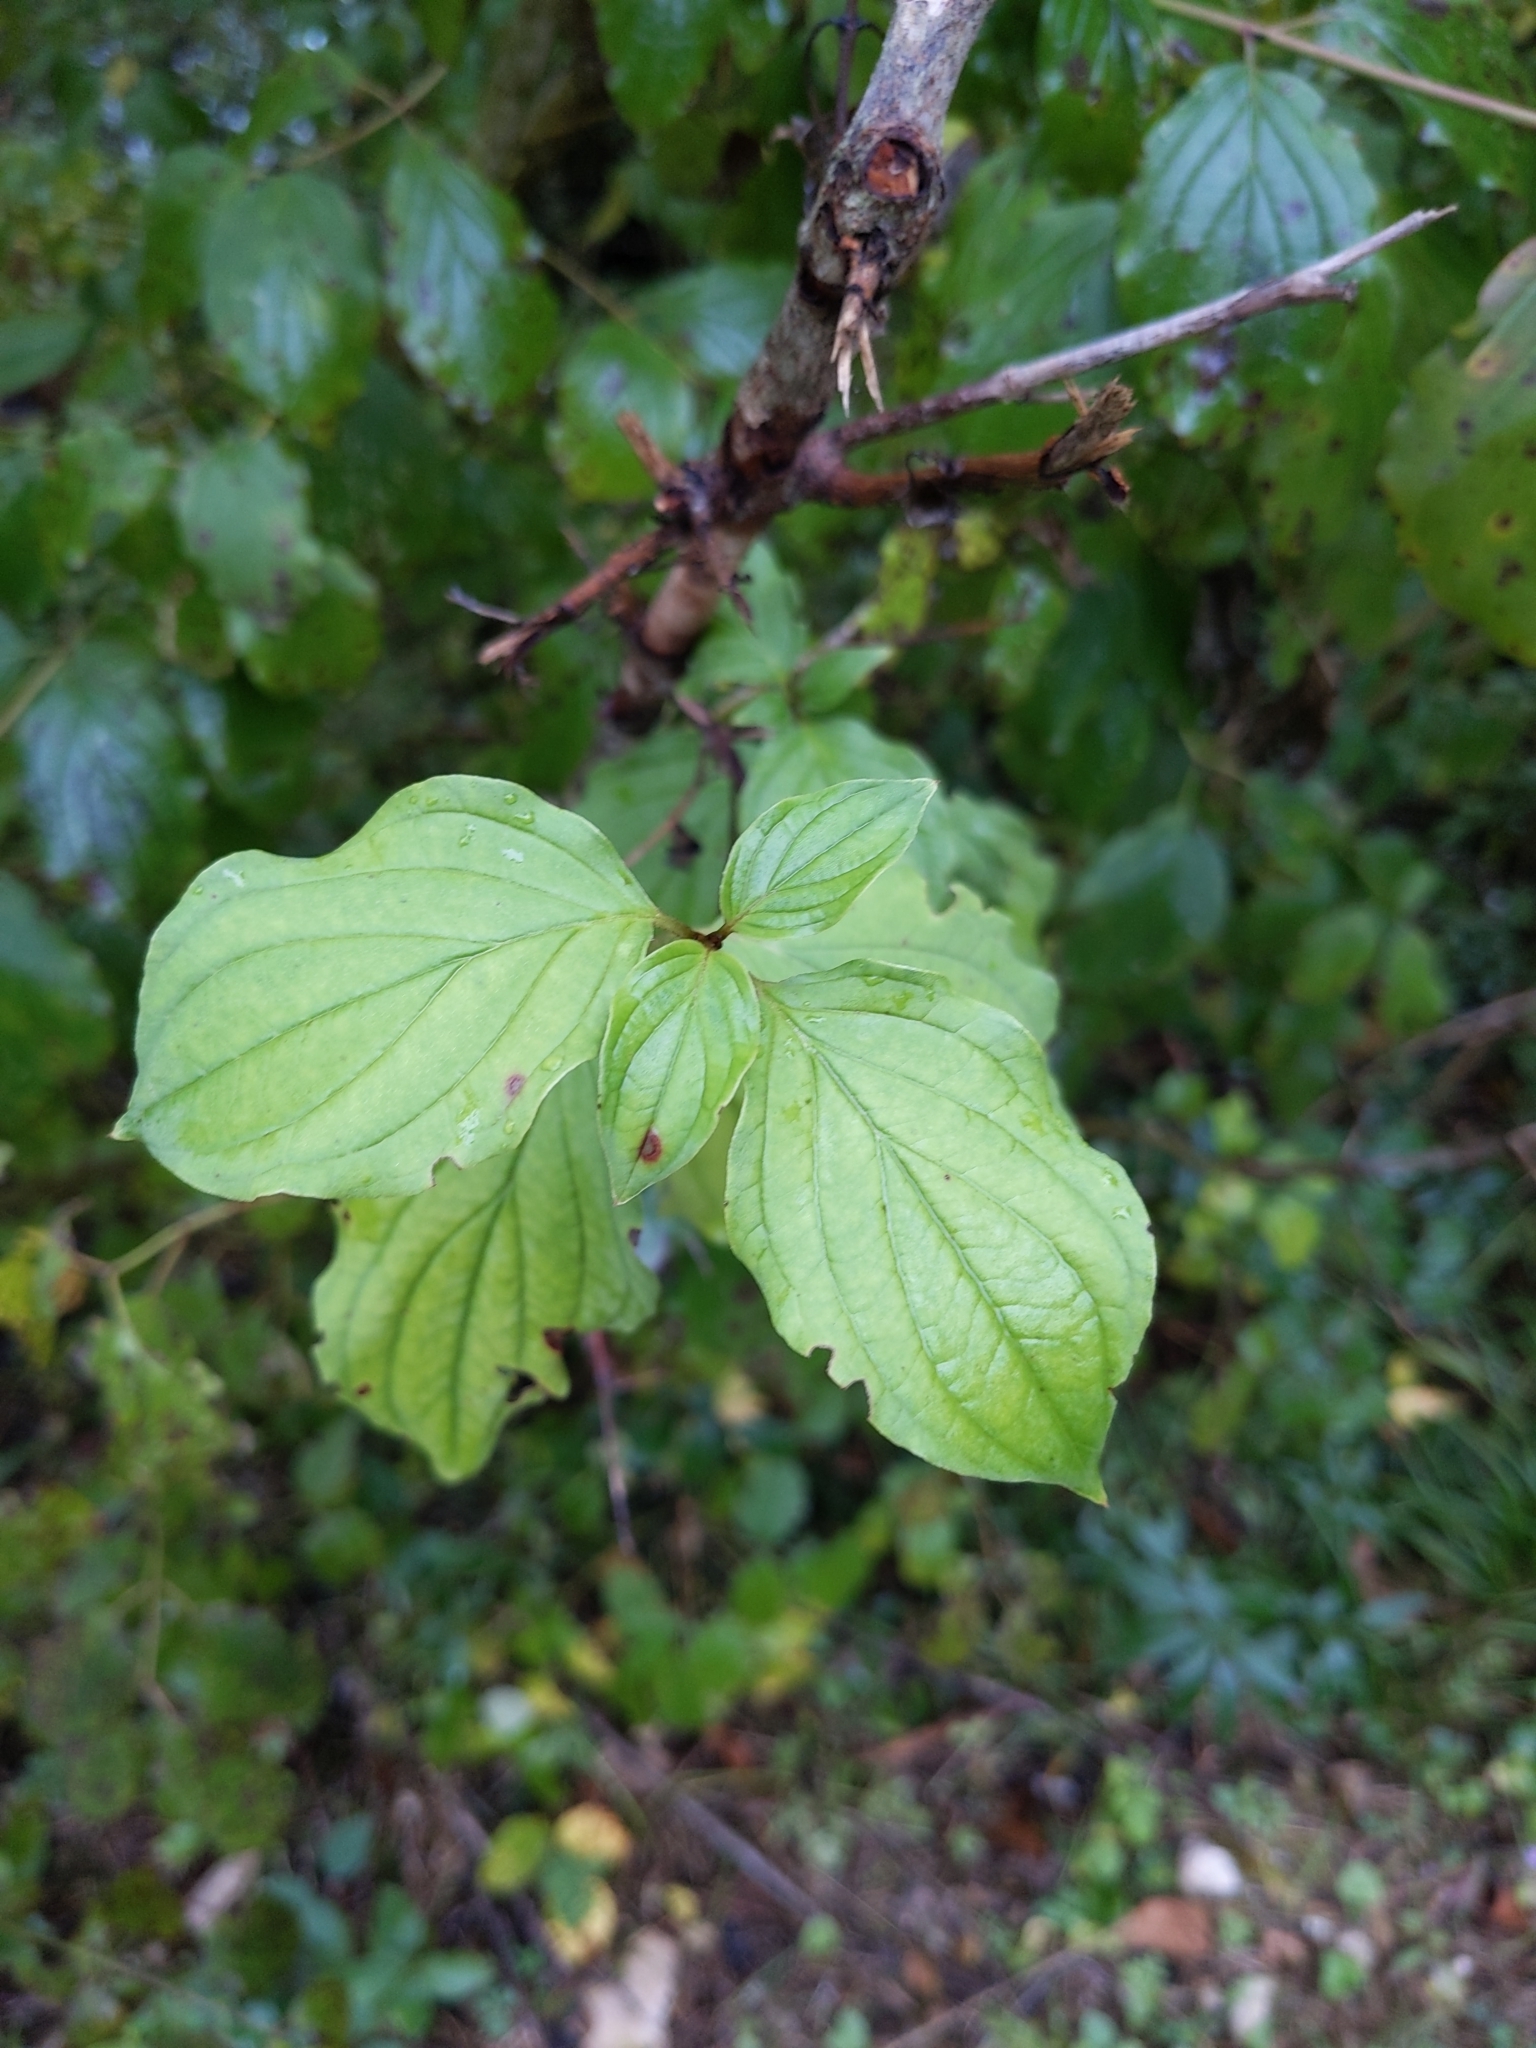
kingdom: Plantae
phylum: Tracheophyta
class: Magnoliopsida
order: Cornales
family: Cornaceae
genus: Cornus
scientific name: Cornus sanguinea
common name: Dogwood
